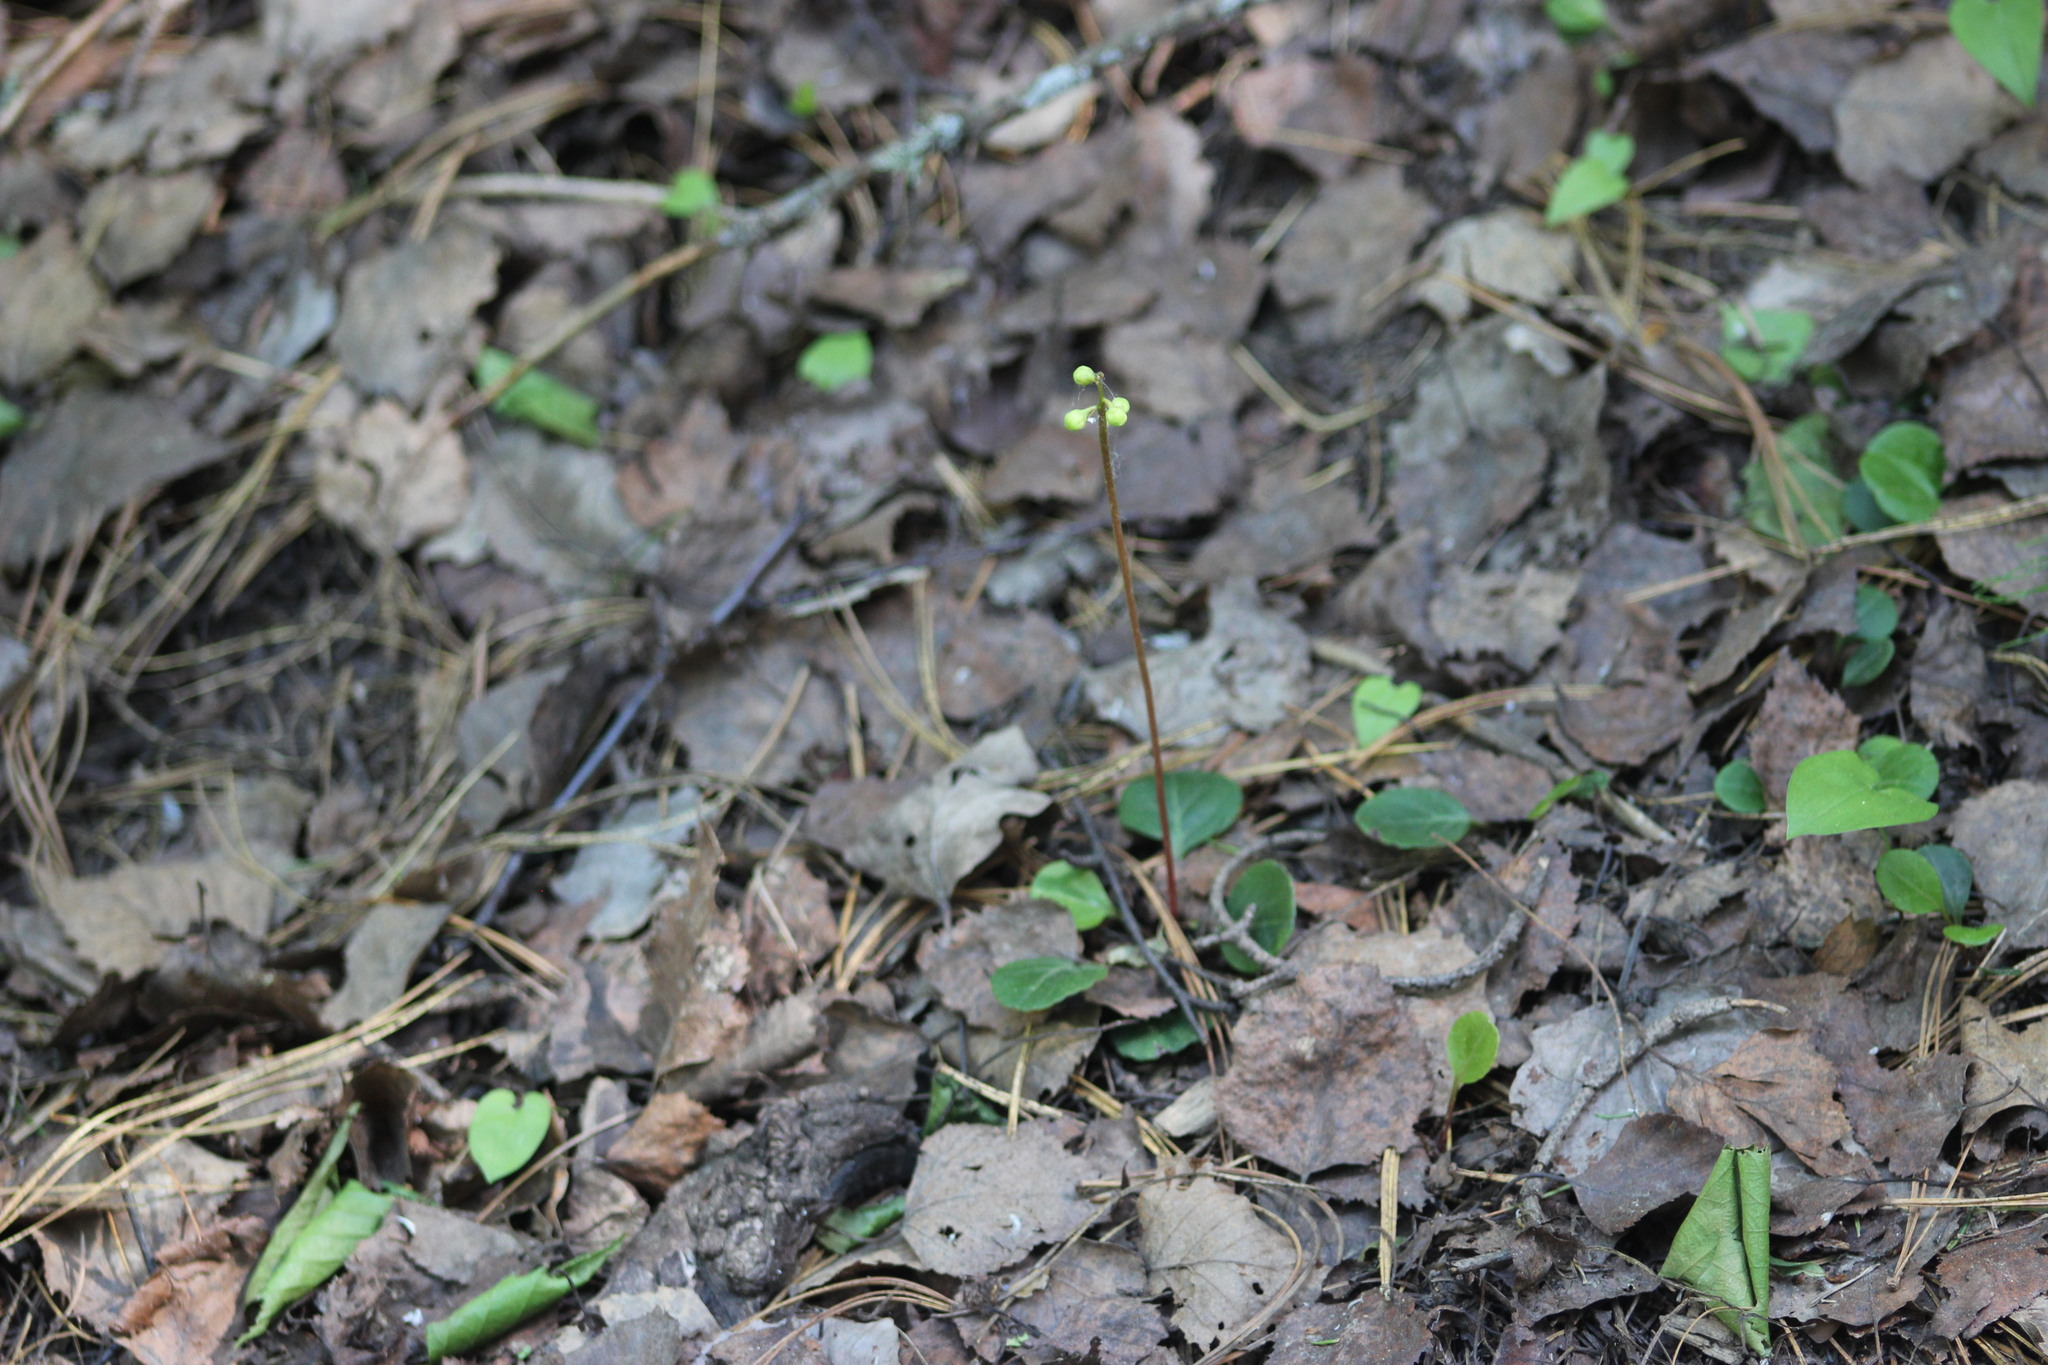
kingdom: Plantae
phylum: Tracheophyta
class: Magnoliopsida
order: Ericales
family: Ericaceae
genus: Pyrola
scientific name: Pyrola chlorantha
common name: Green wintergreen
